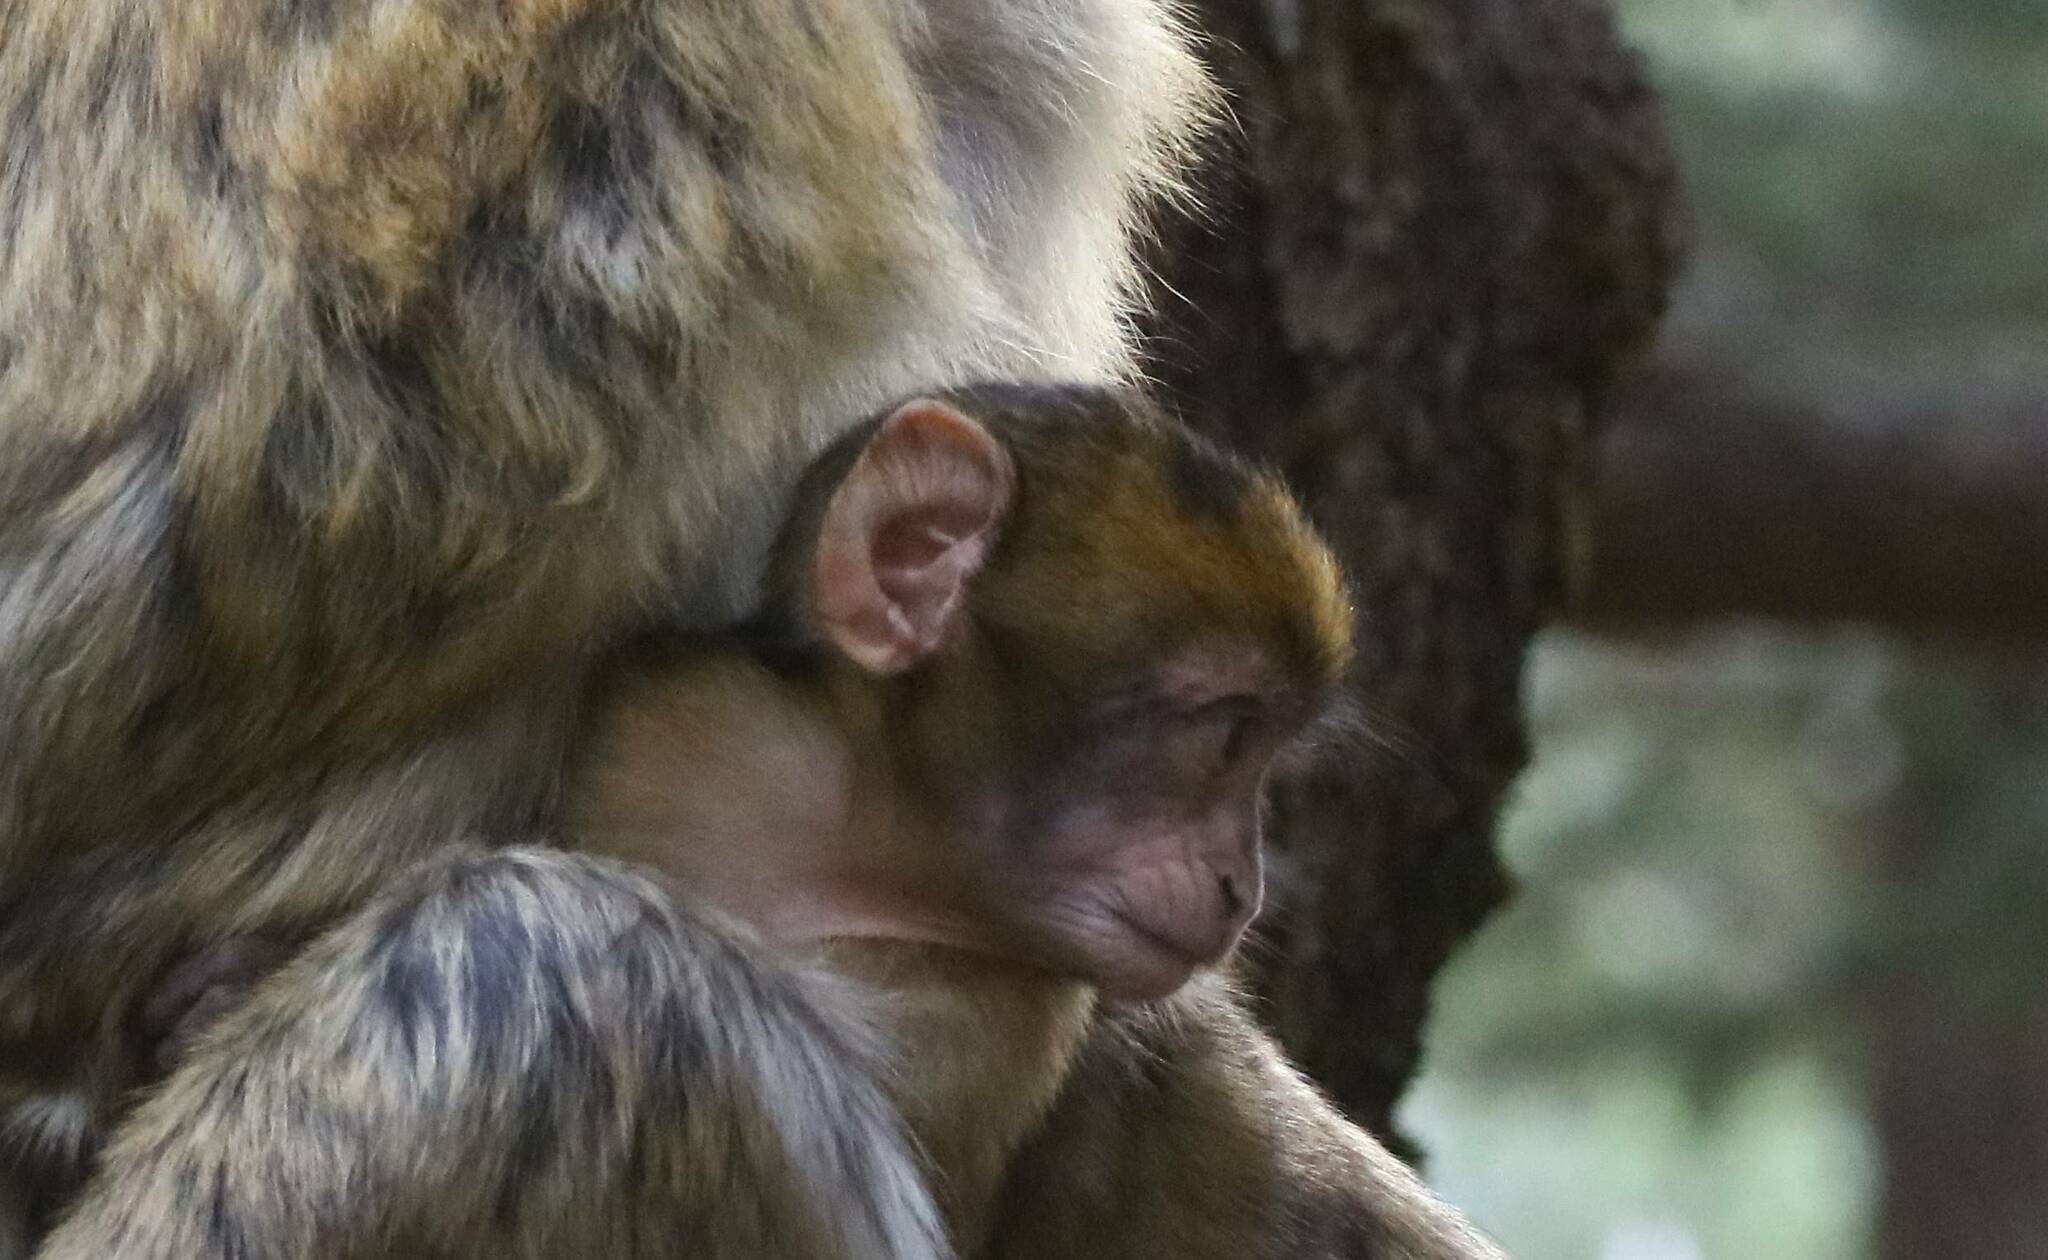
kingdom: Animalia
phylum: Chordata
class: Mammalia
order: Primates
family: Cercopithecidae
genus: Macaca
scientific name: Macaca sylvanus
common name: Barbary macaque
